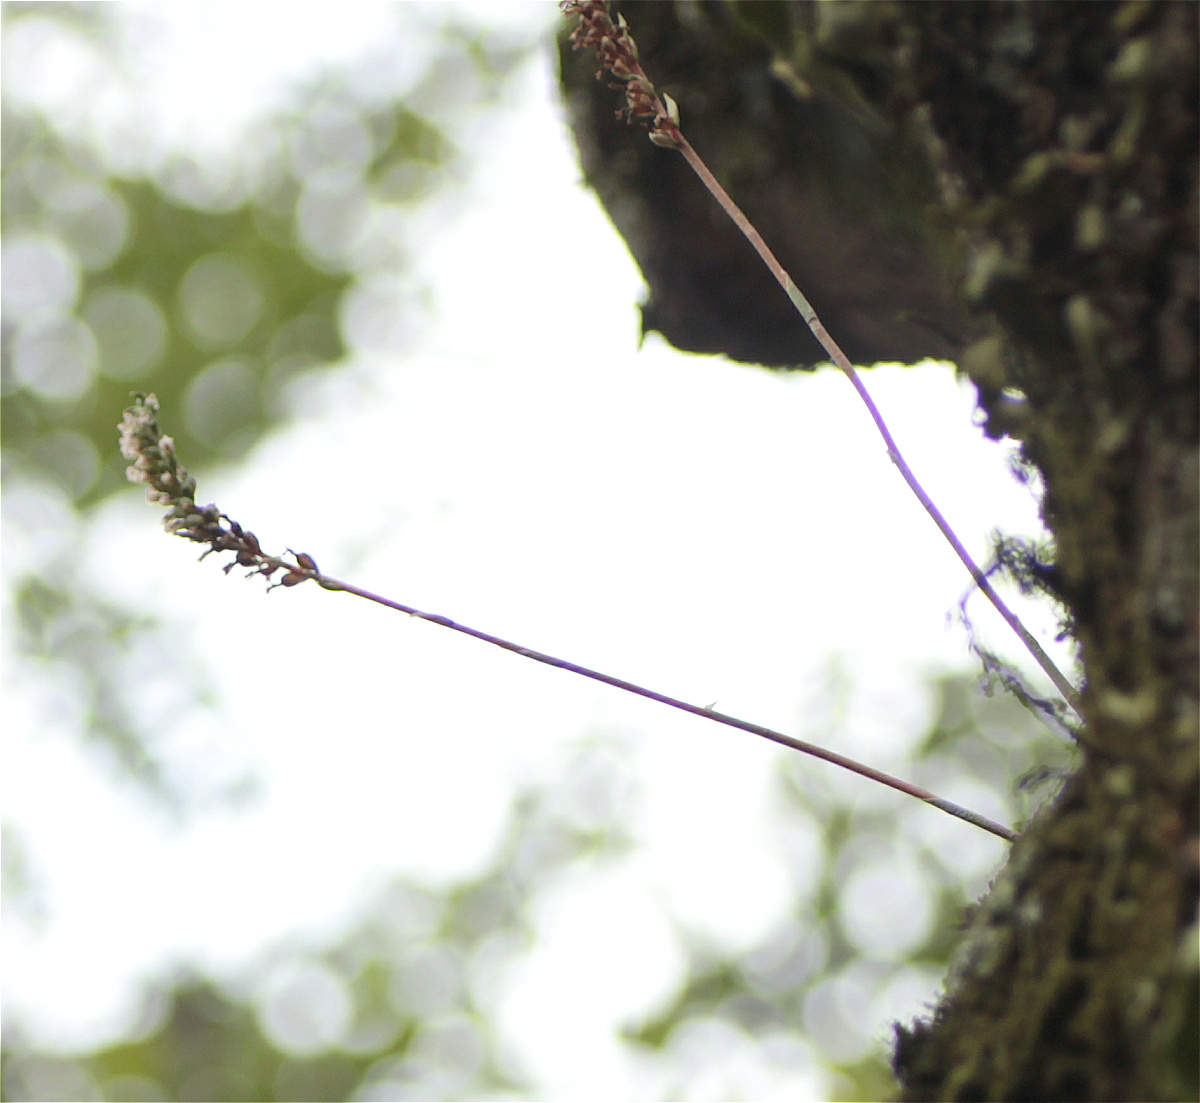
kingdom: Plantae
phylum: Tracheophyta
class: Liliopsida
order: Asparagales
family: Orchidaceae
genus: Cyclopogon
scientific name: Cyclopogon elatus
